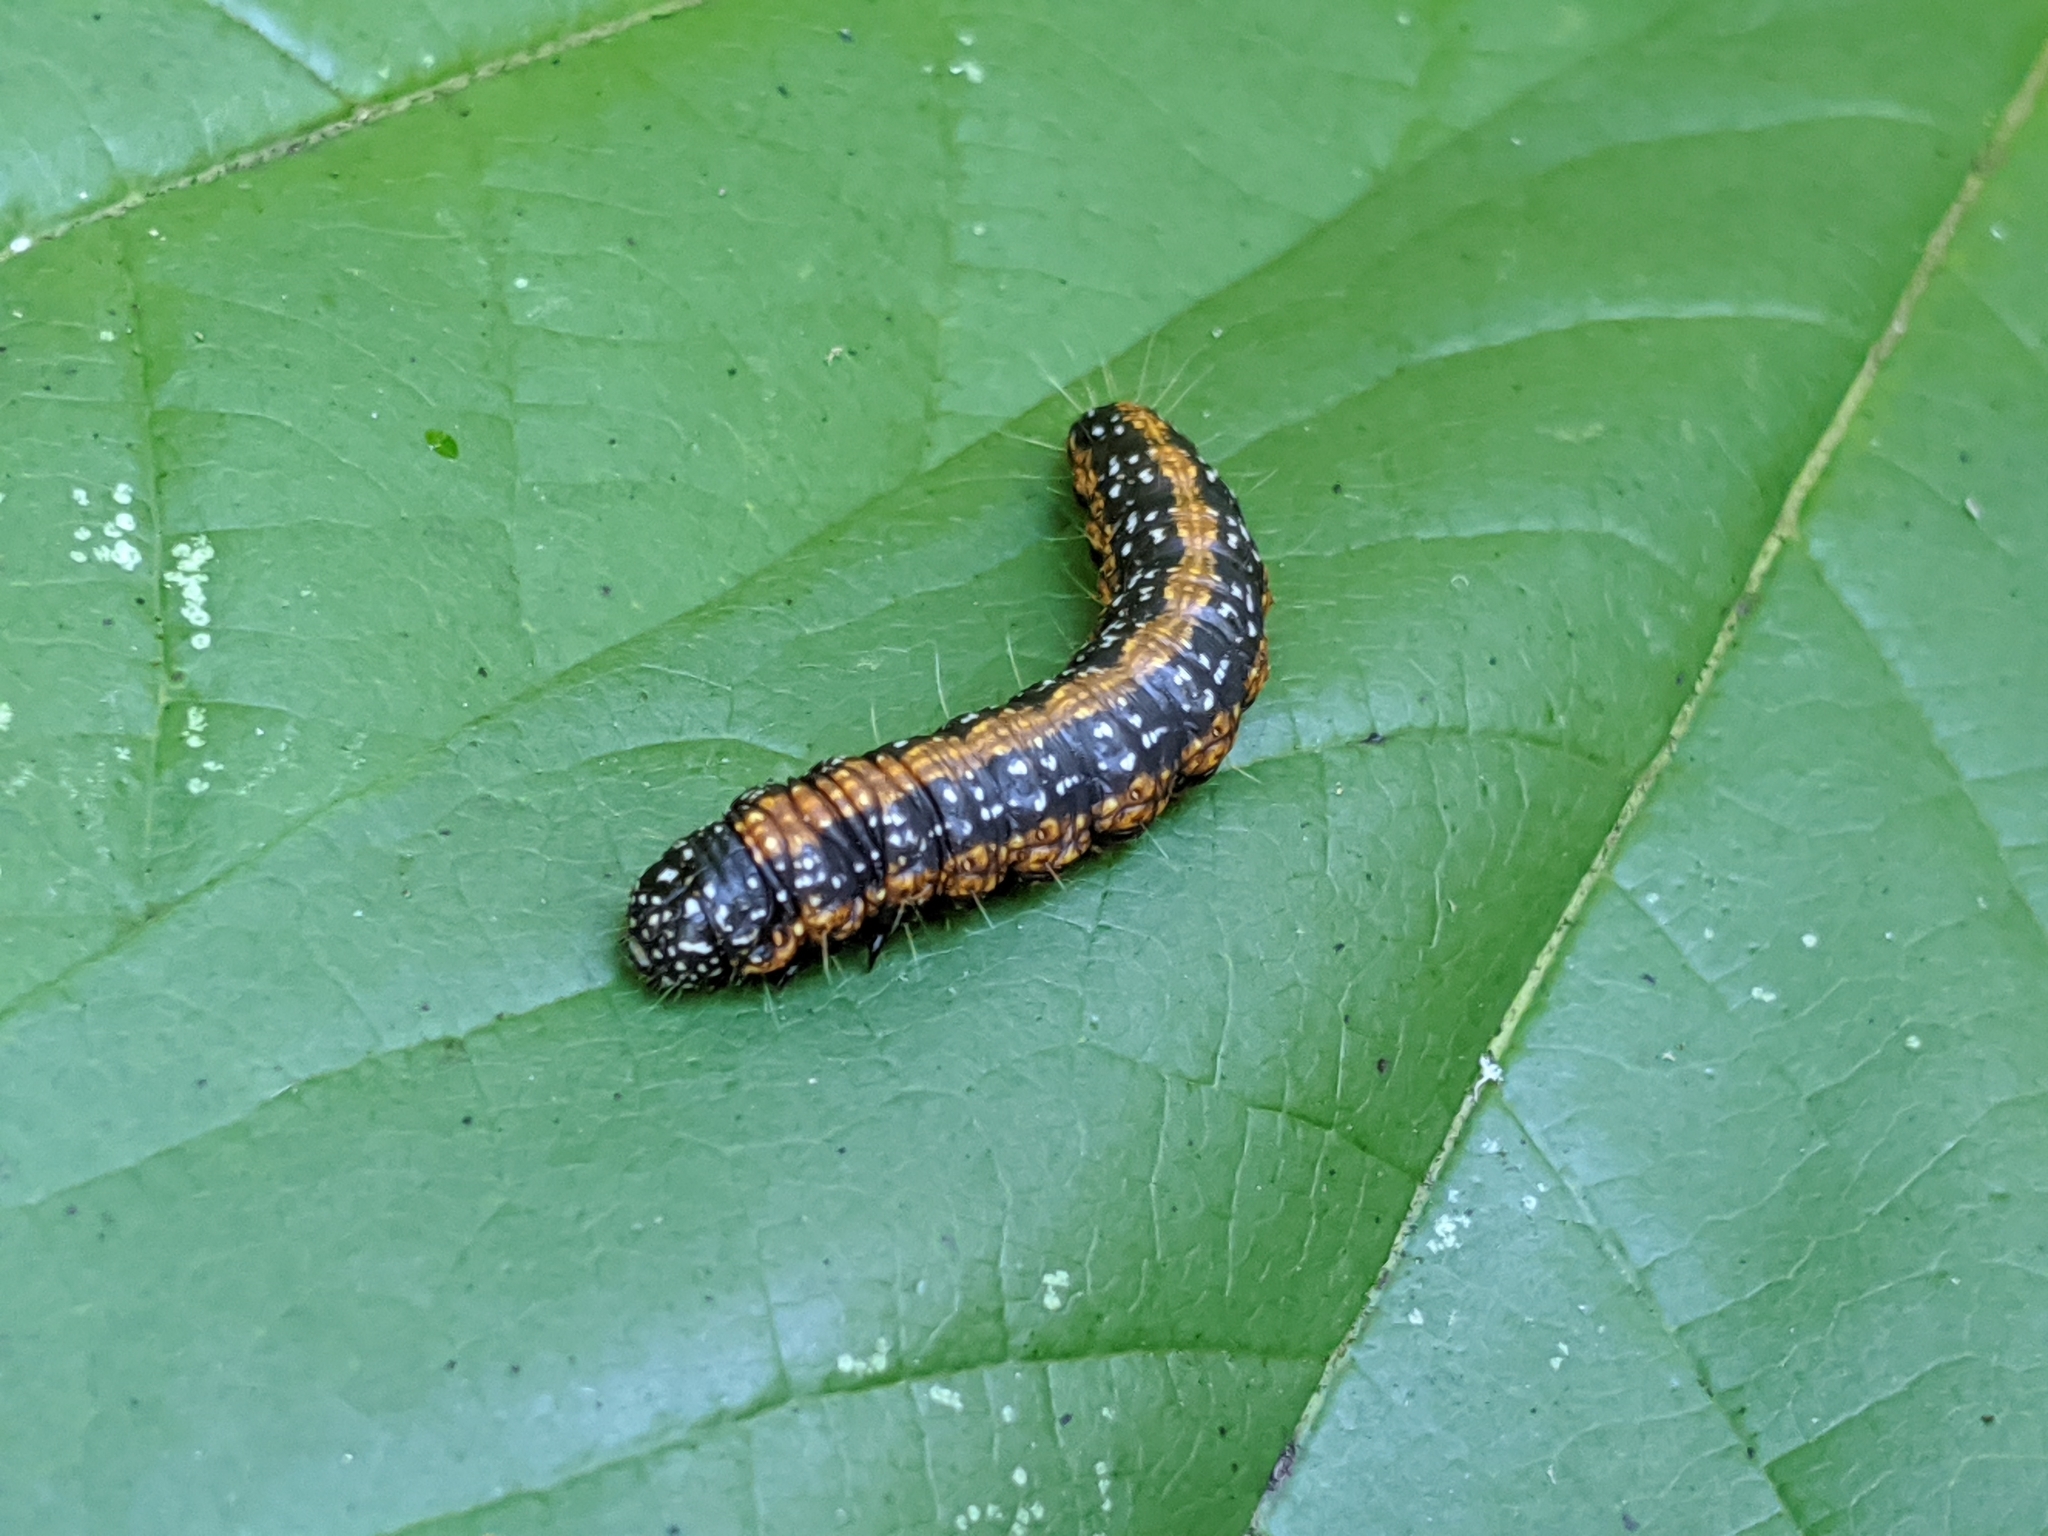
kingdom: Animalia
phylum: Arthropoda
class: Insecta
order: Lepidoptera
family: Pyralidae
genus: Omphalocera
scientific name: Omphalocera munroei
